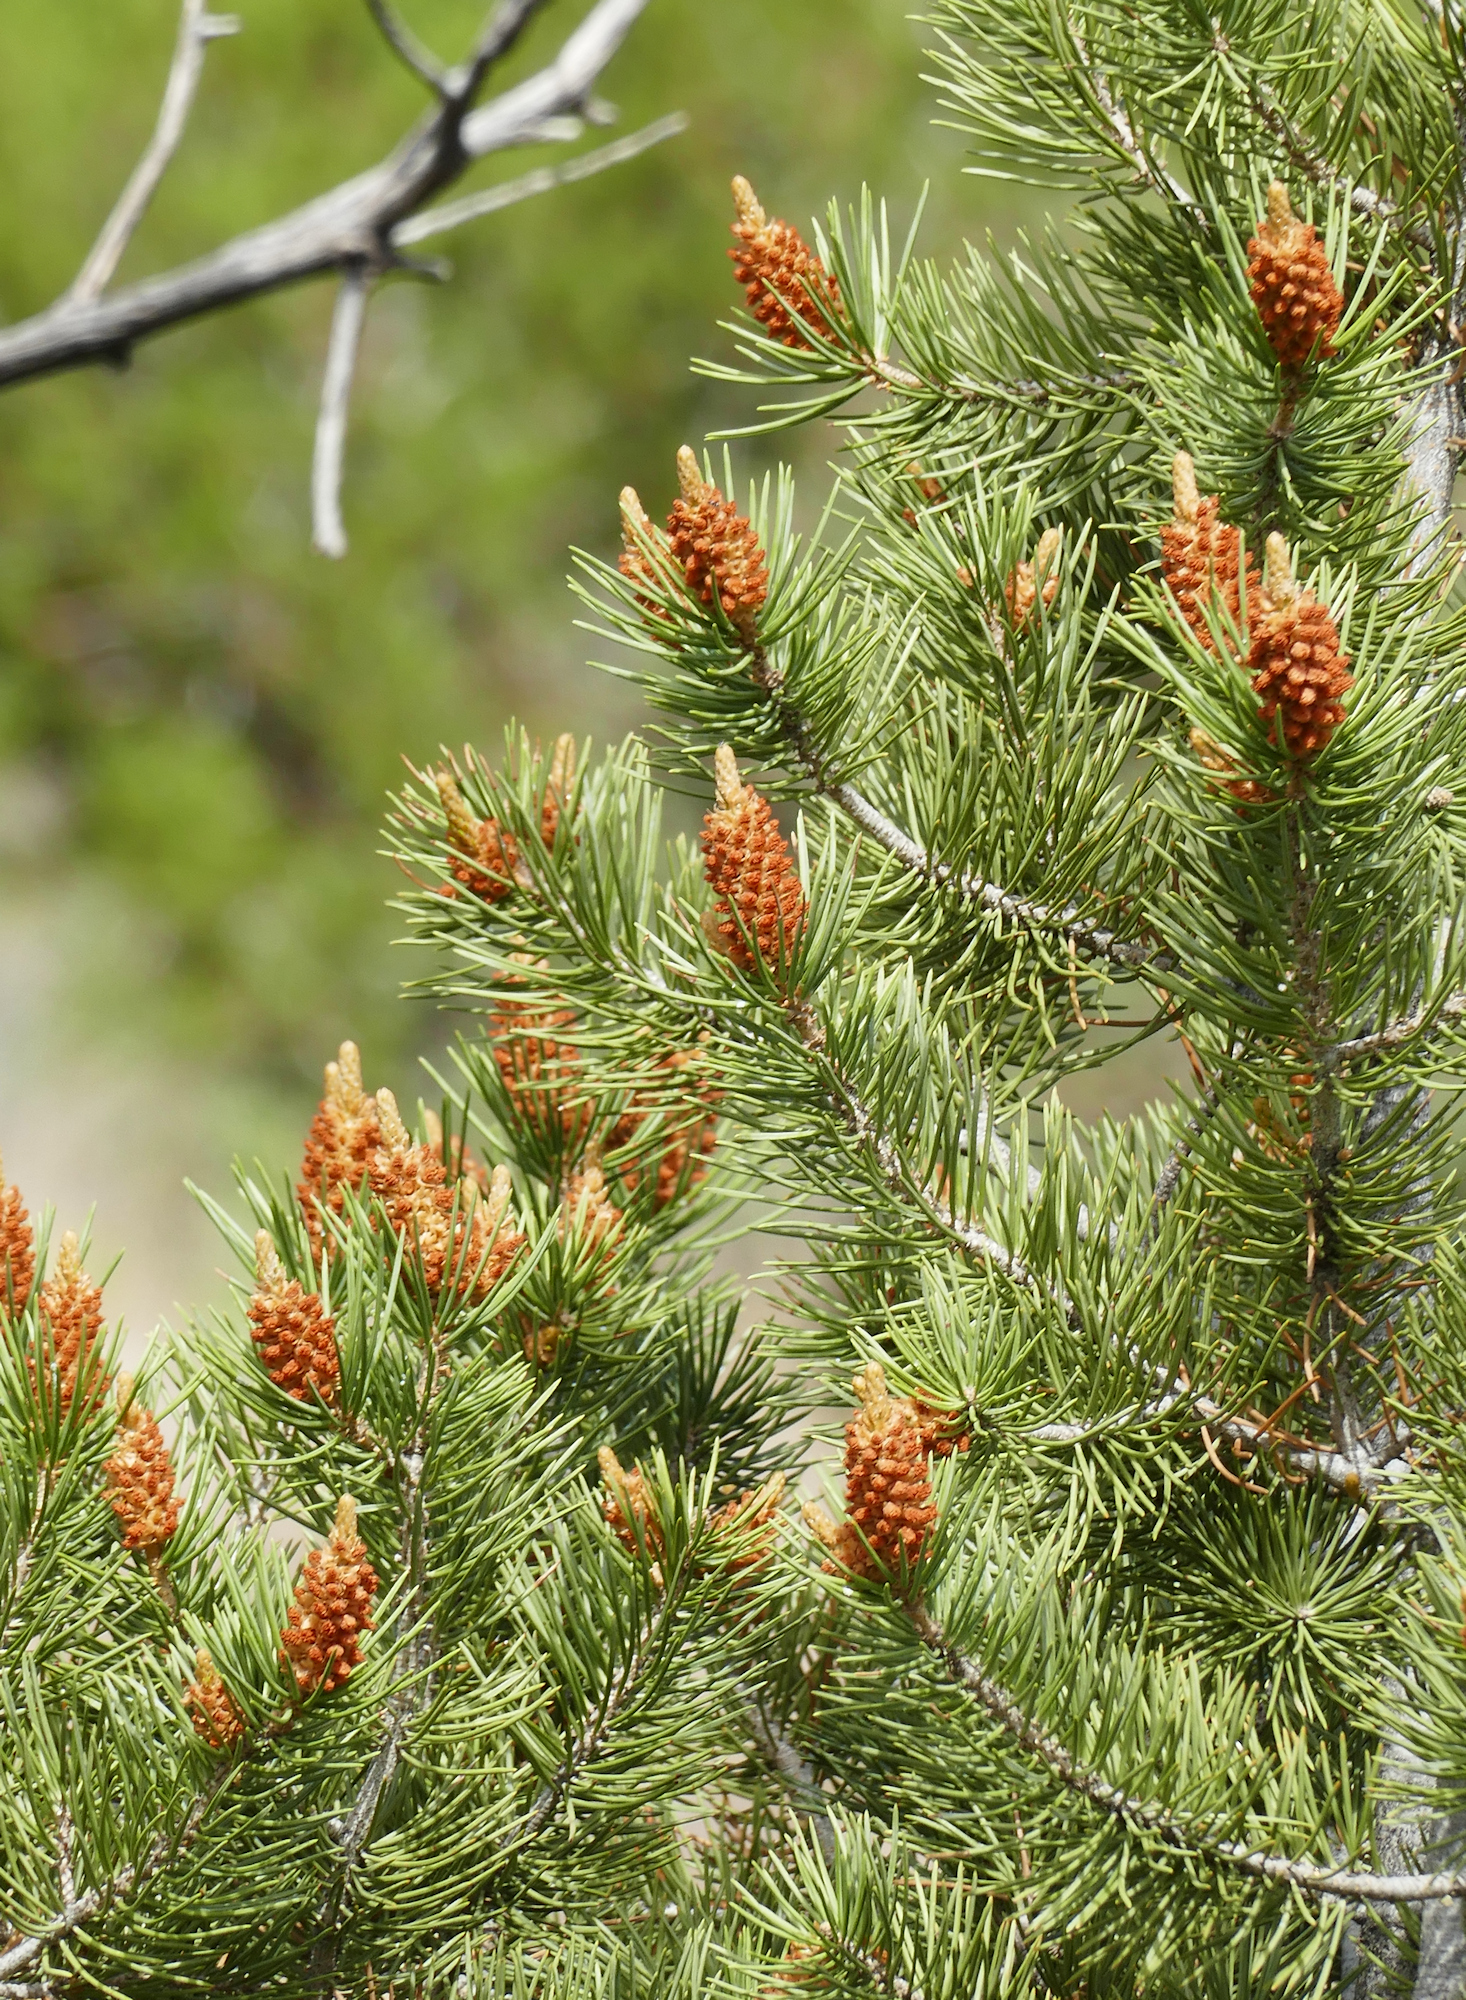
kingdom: Plantae
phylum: Tracheophyta
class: Pinopsida
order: Pinales
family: Pinaceae
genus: Pinus
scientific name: Pinus monophylla
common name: One-leaved nut pine
